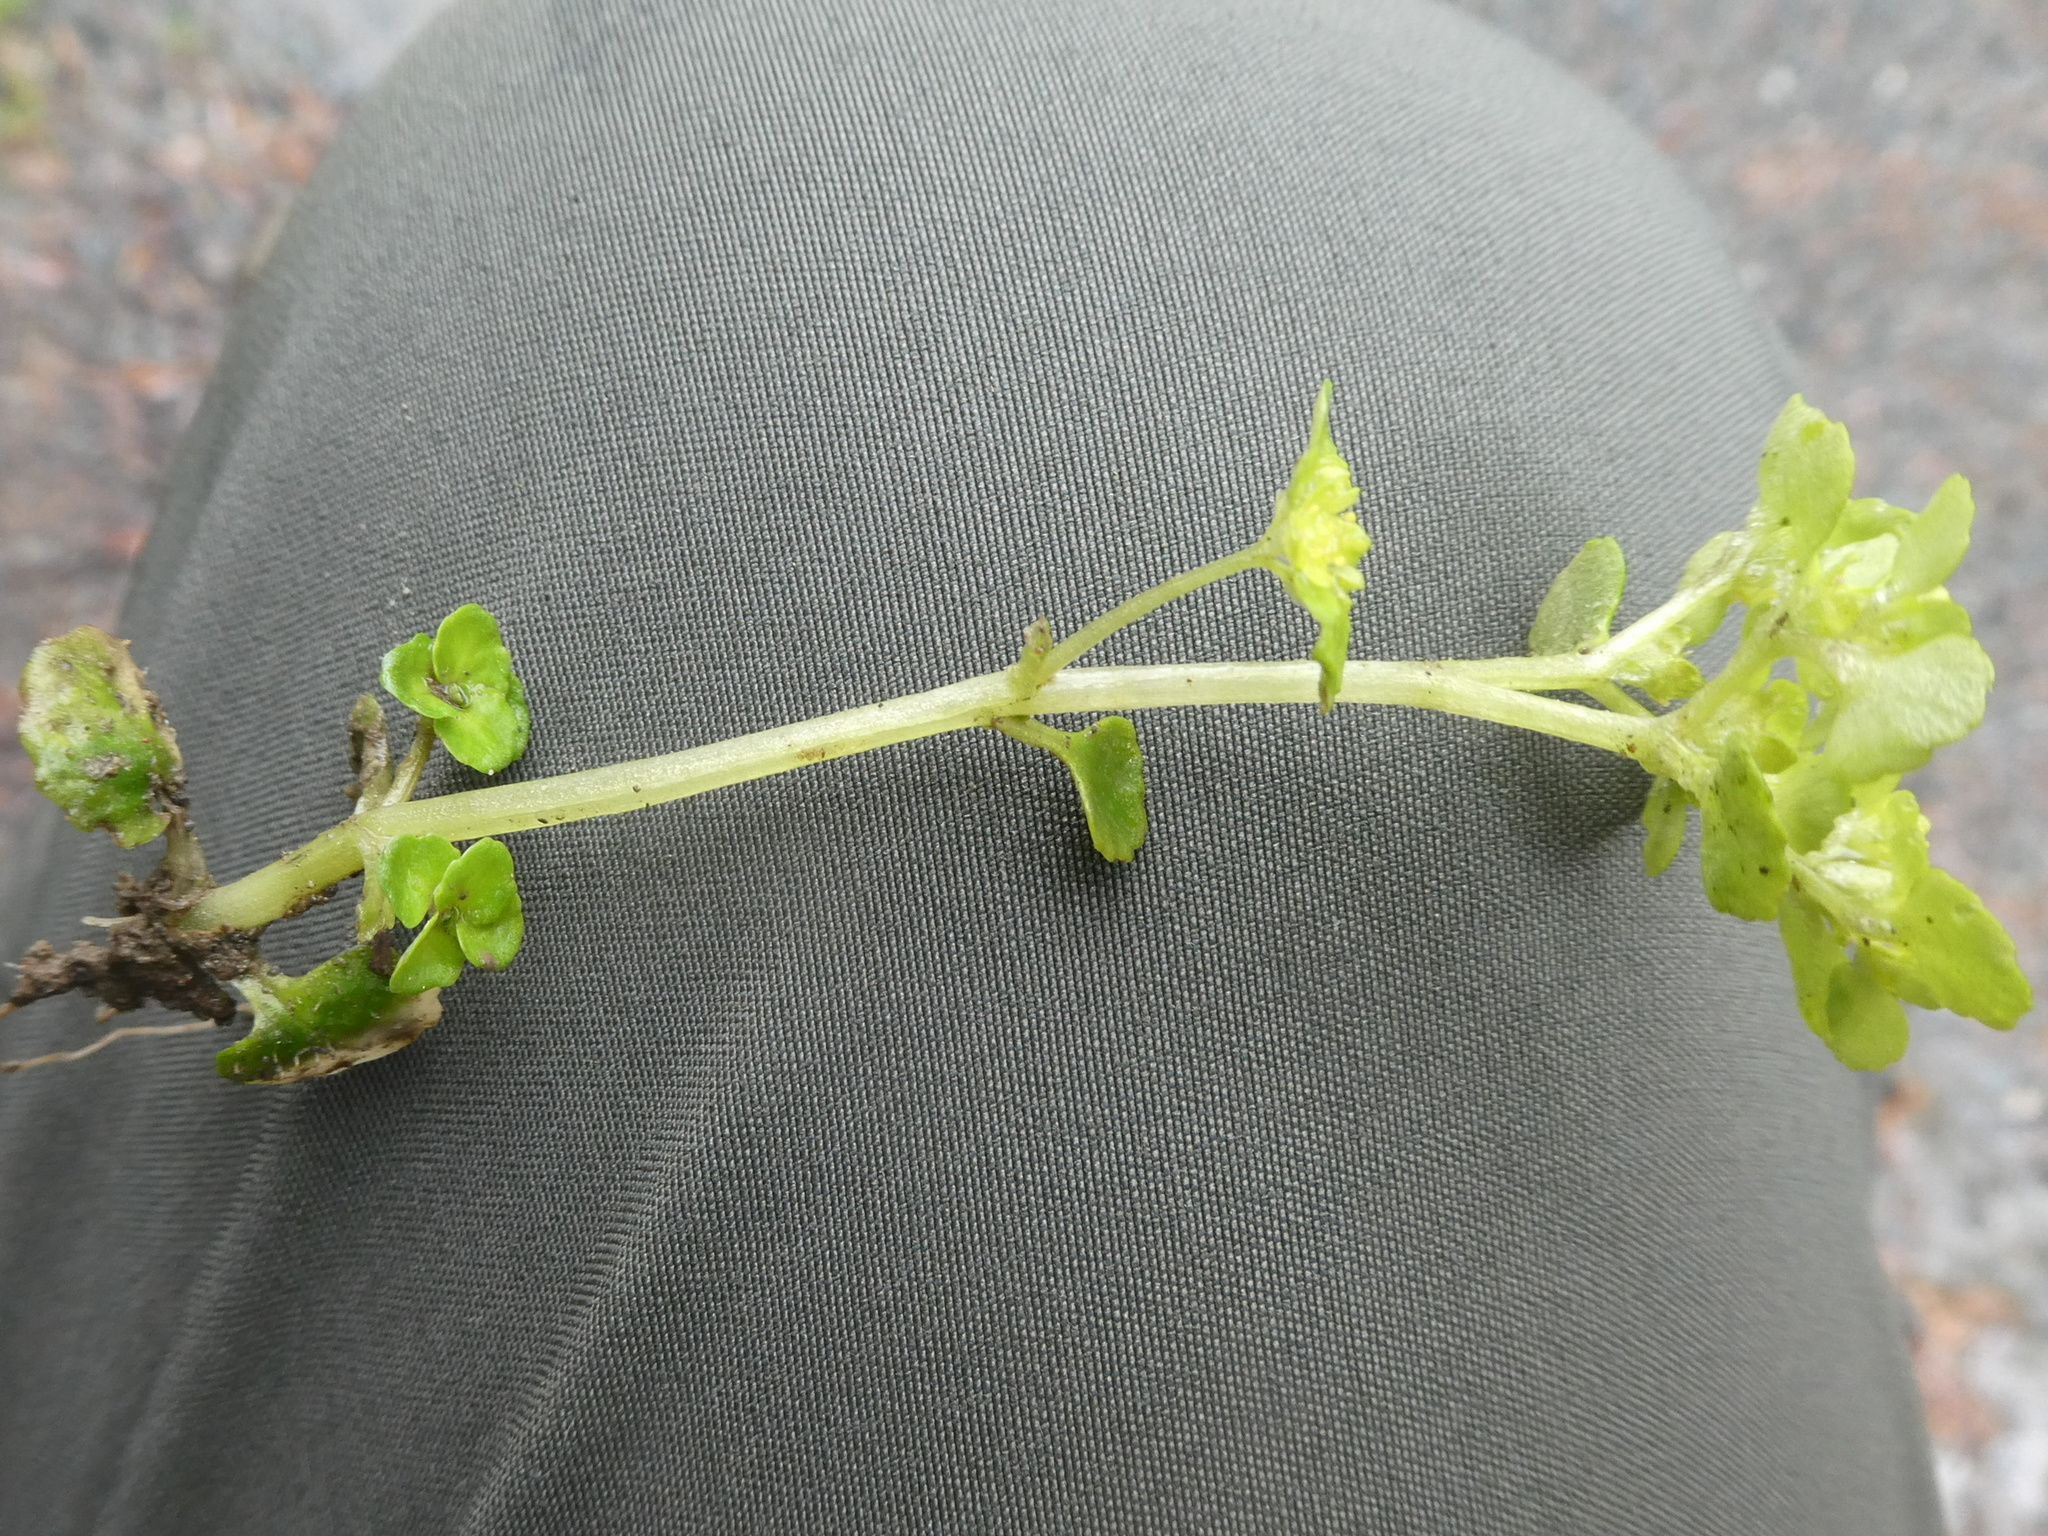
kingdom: Plantae
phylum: Tracheophyta
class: Magnoliopsida
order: Saxifragales
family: Saxifragaceae
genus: Chrysosplenium
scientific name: Chrysosplenium oppositifolium
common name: Opposite-leaved golden-saxifrage
